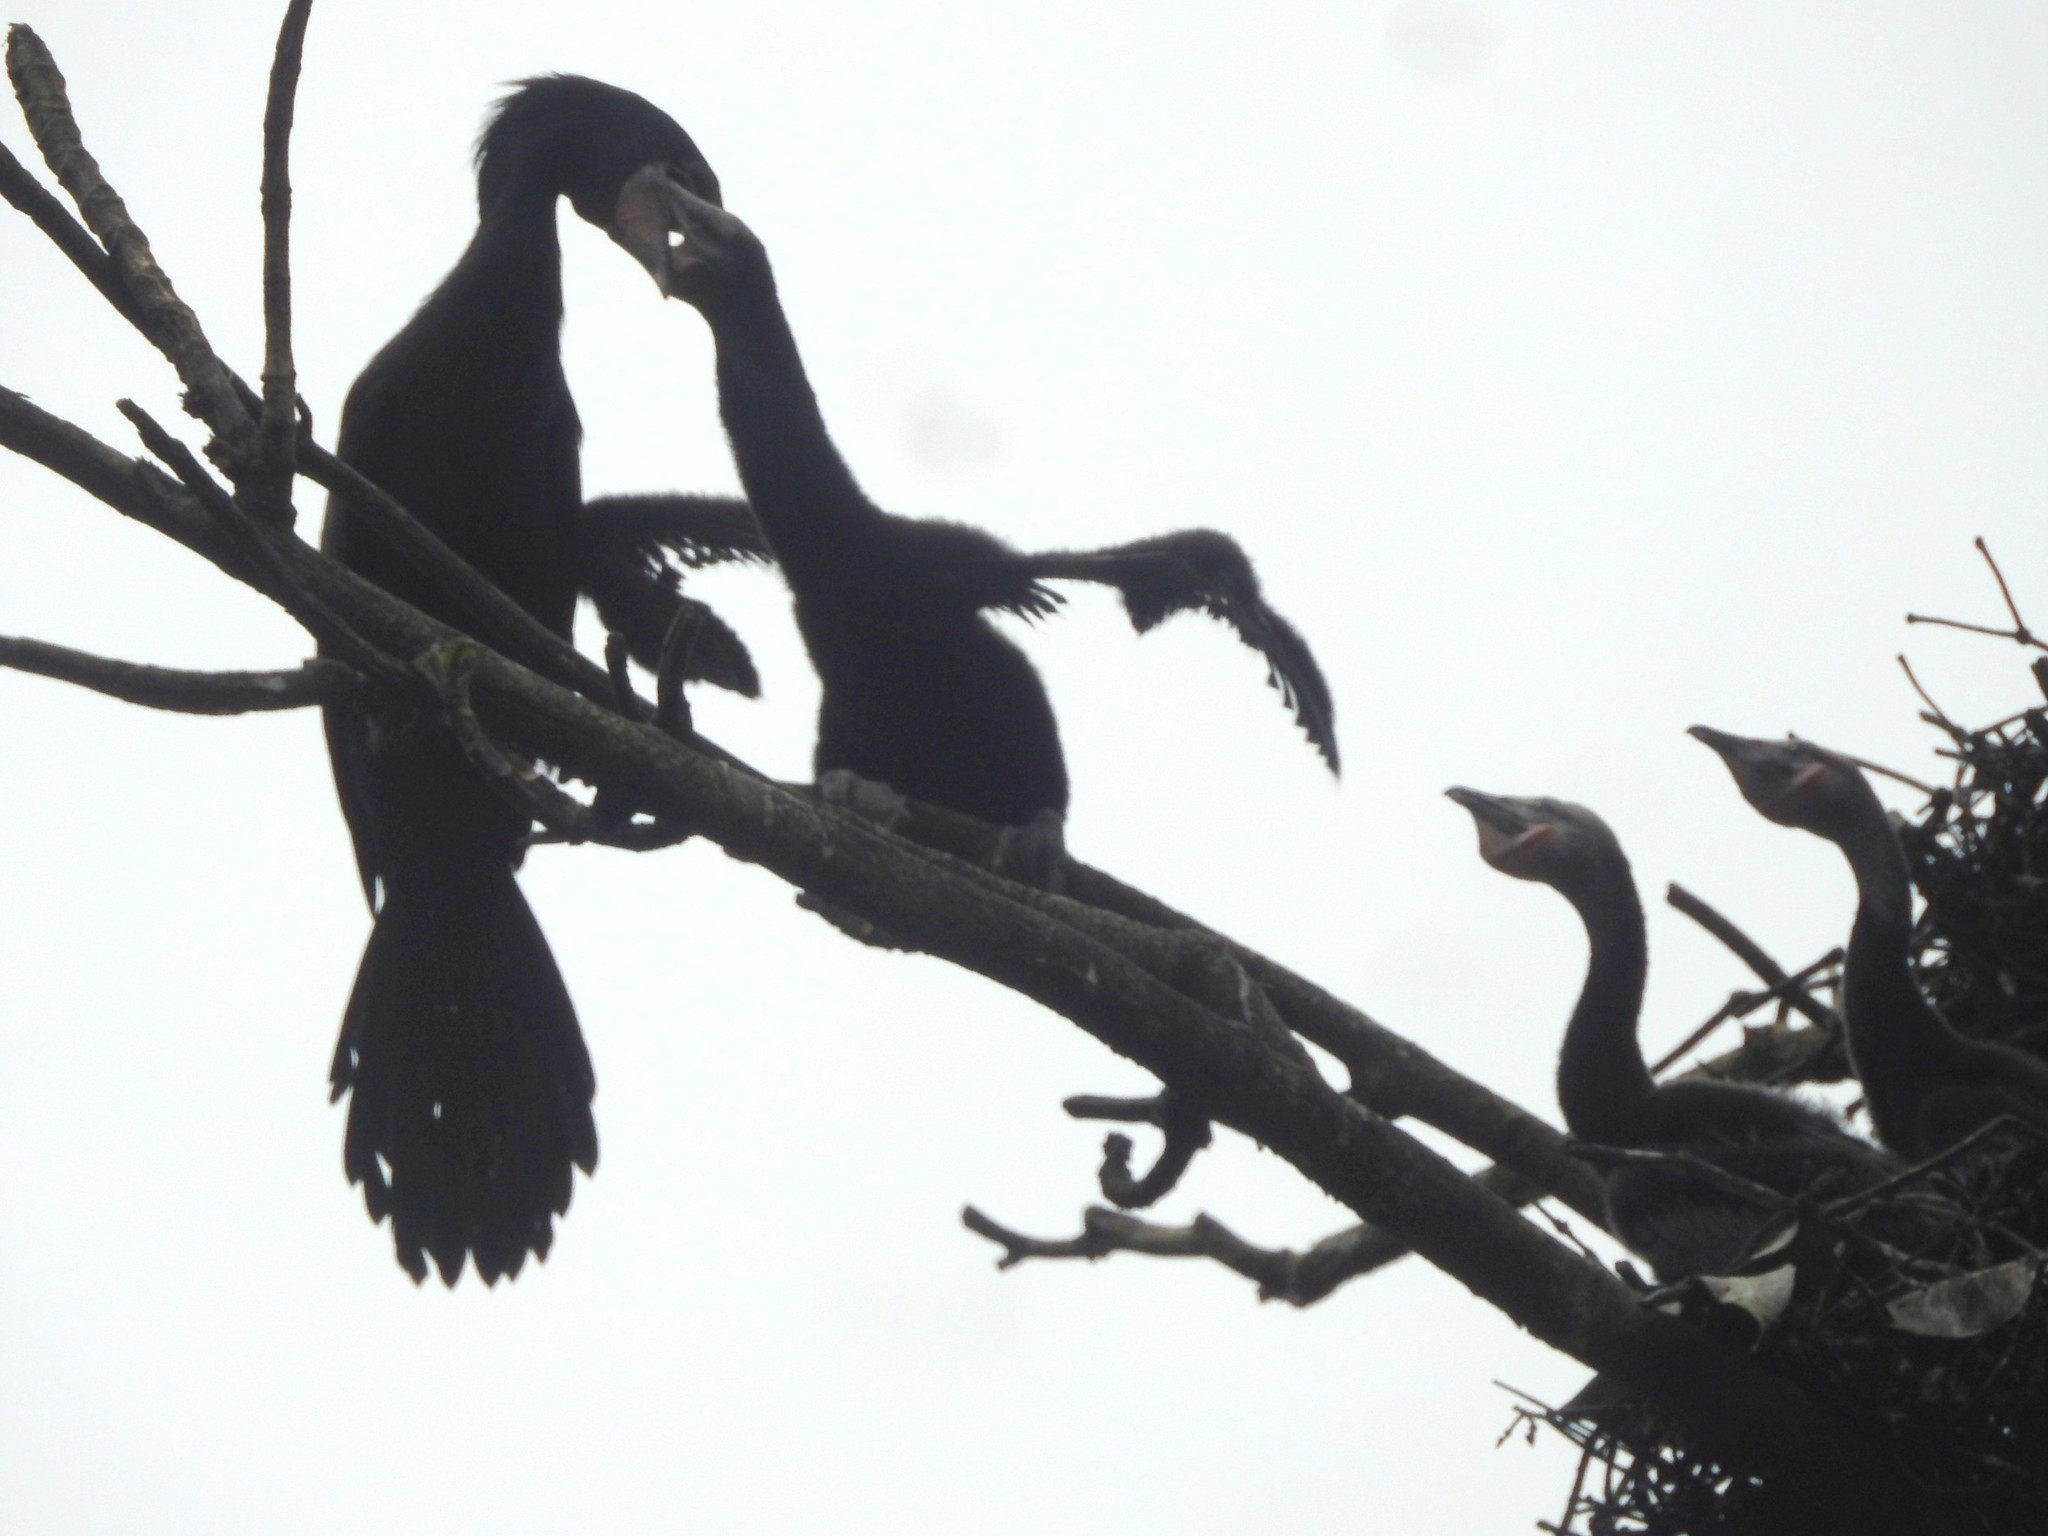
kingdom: Animalia
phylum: Chordata
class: Aves
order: Suliformes
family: Phalacrocoracidae
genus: Microcarbo
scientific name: Microcarbo niger
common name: Little cormorant
